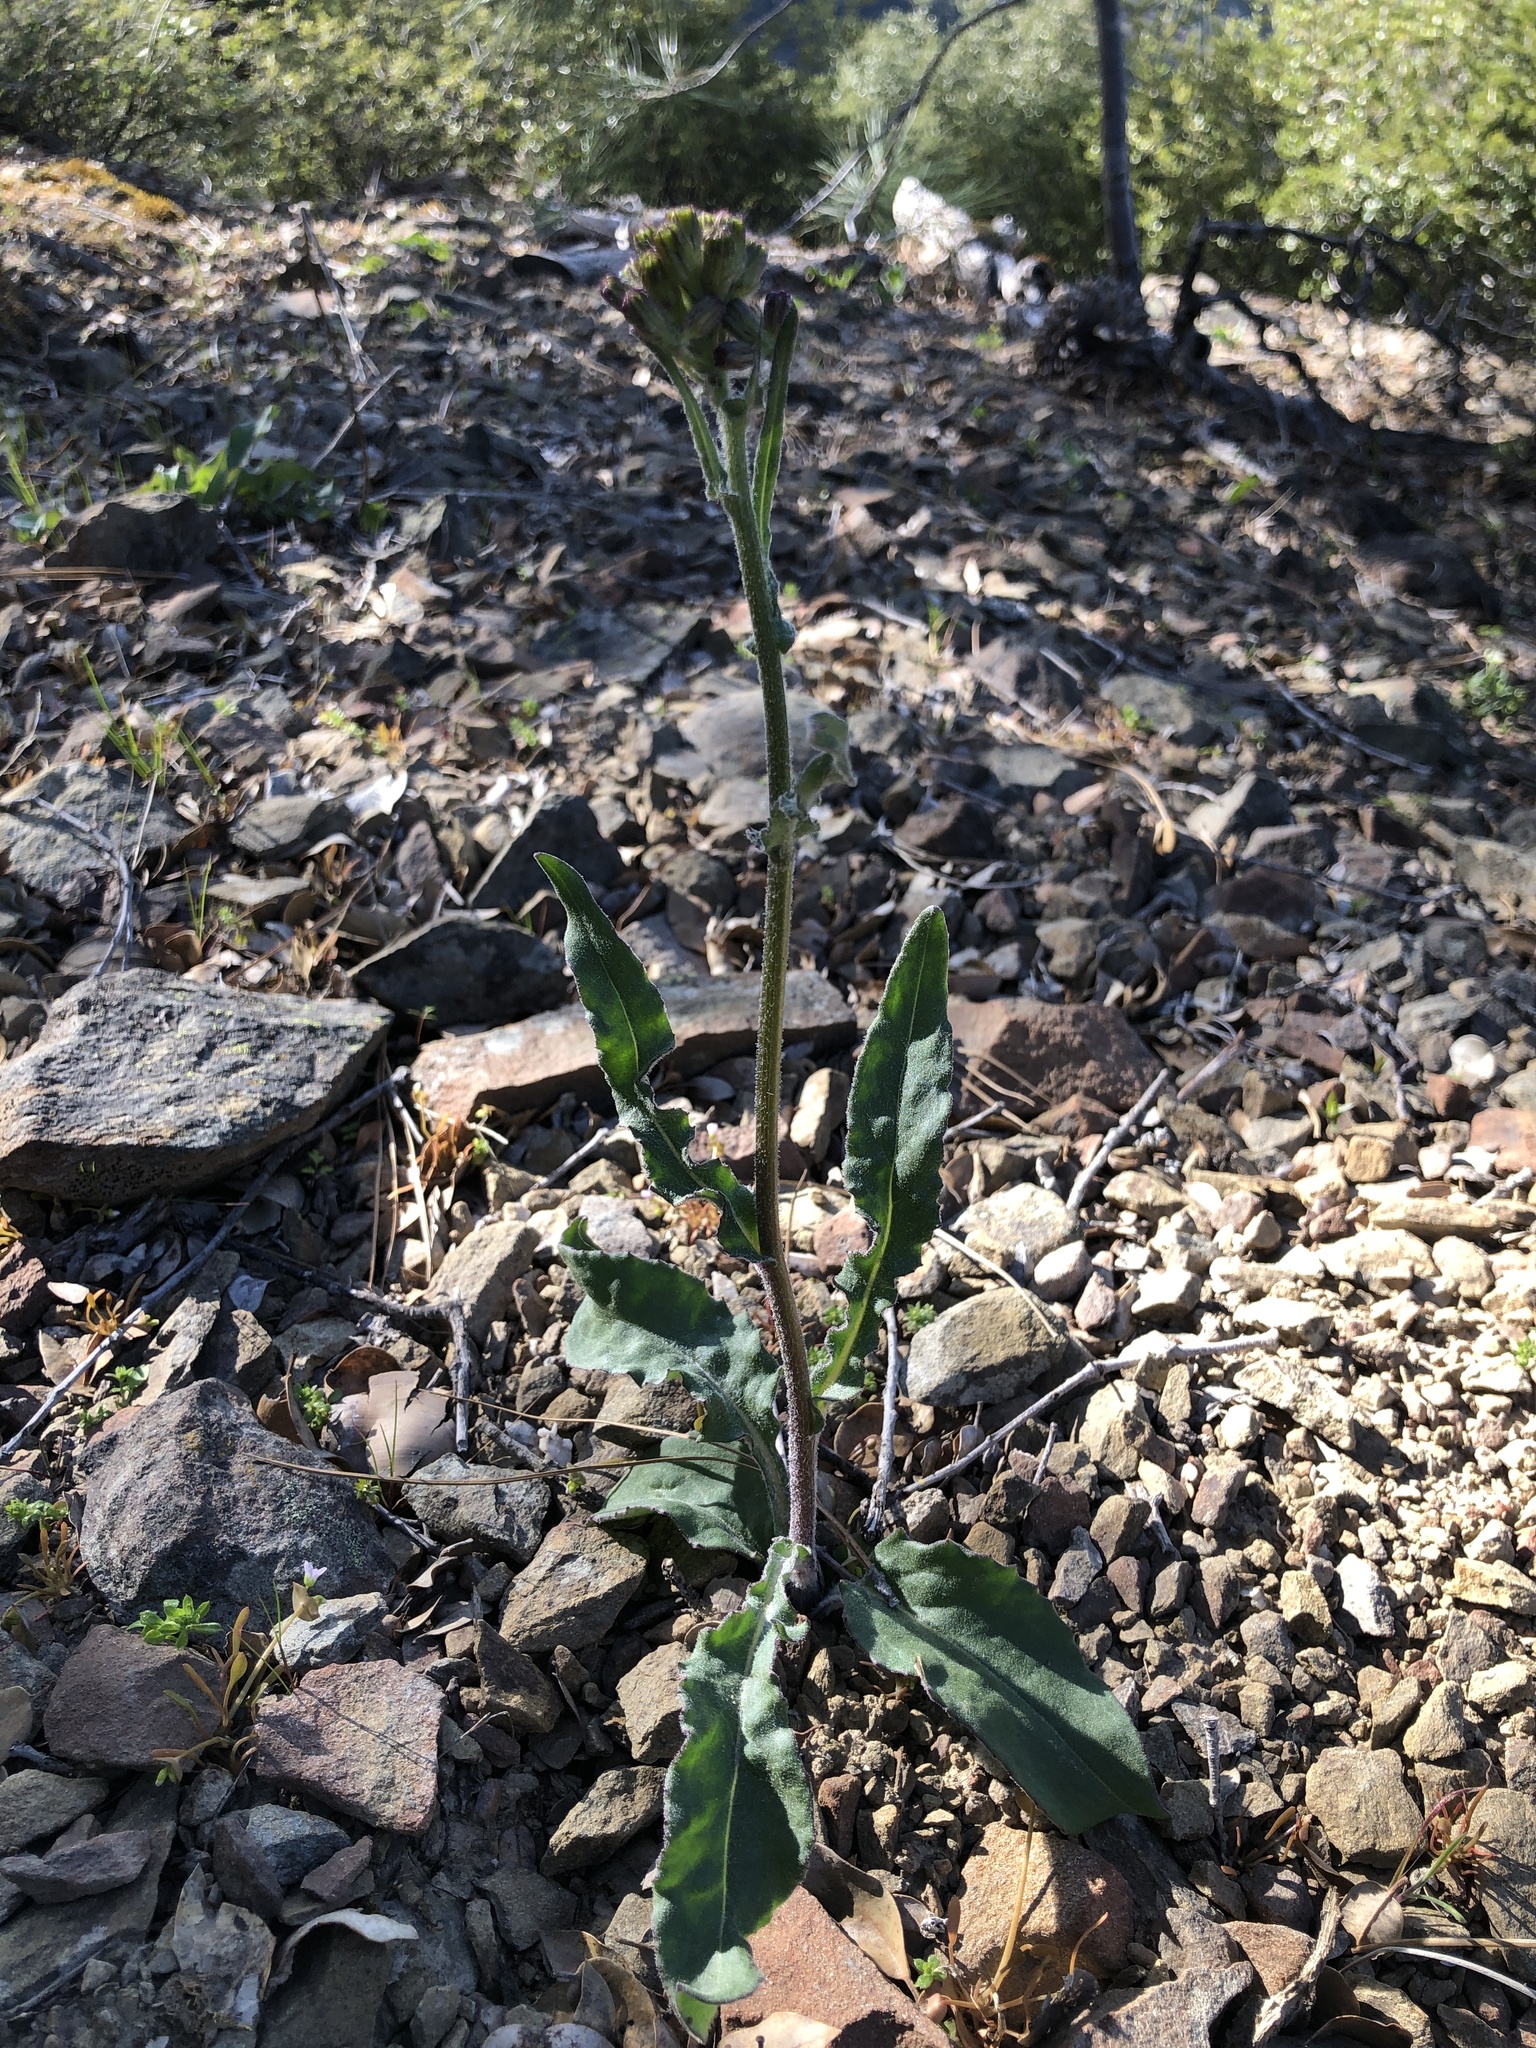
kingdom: Plantae
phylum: Tracheophyta
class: Magnoliopsida
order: Asterales
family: Asteraceae
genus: Senecio
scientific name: Senecio aronicoides
